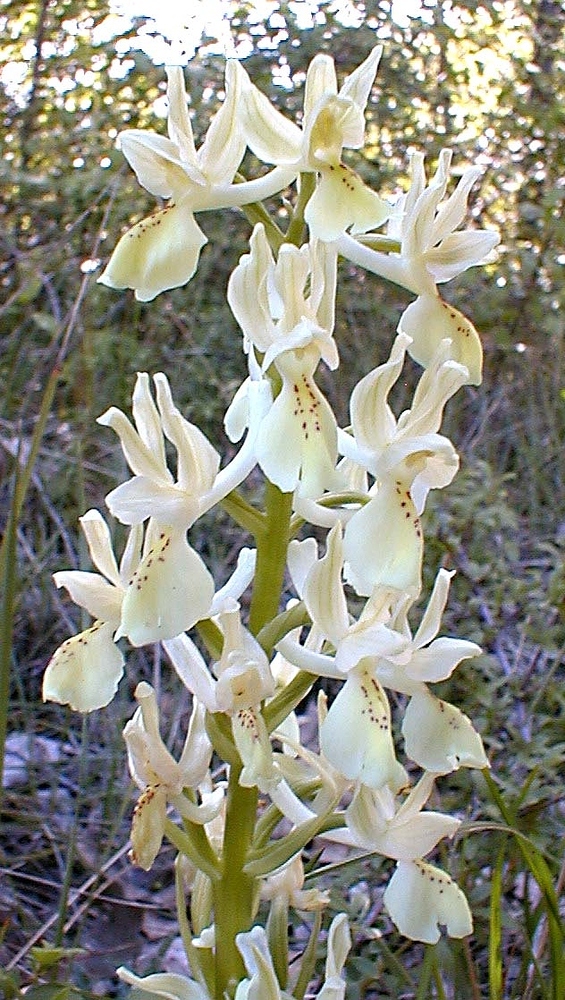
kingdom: Plantae
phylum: Tracheophyta
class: Liliopsida
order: Asparagales
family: Orchidaceae
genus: Orchis
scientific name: Orchis provincialis
